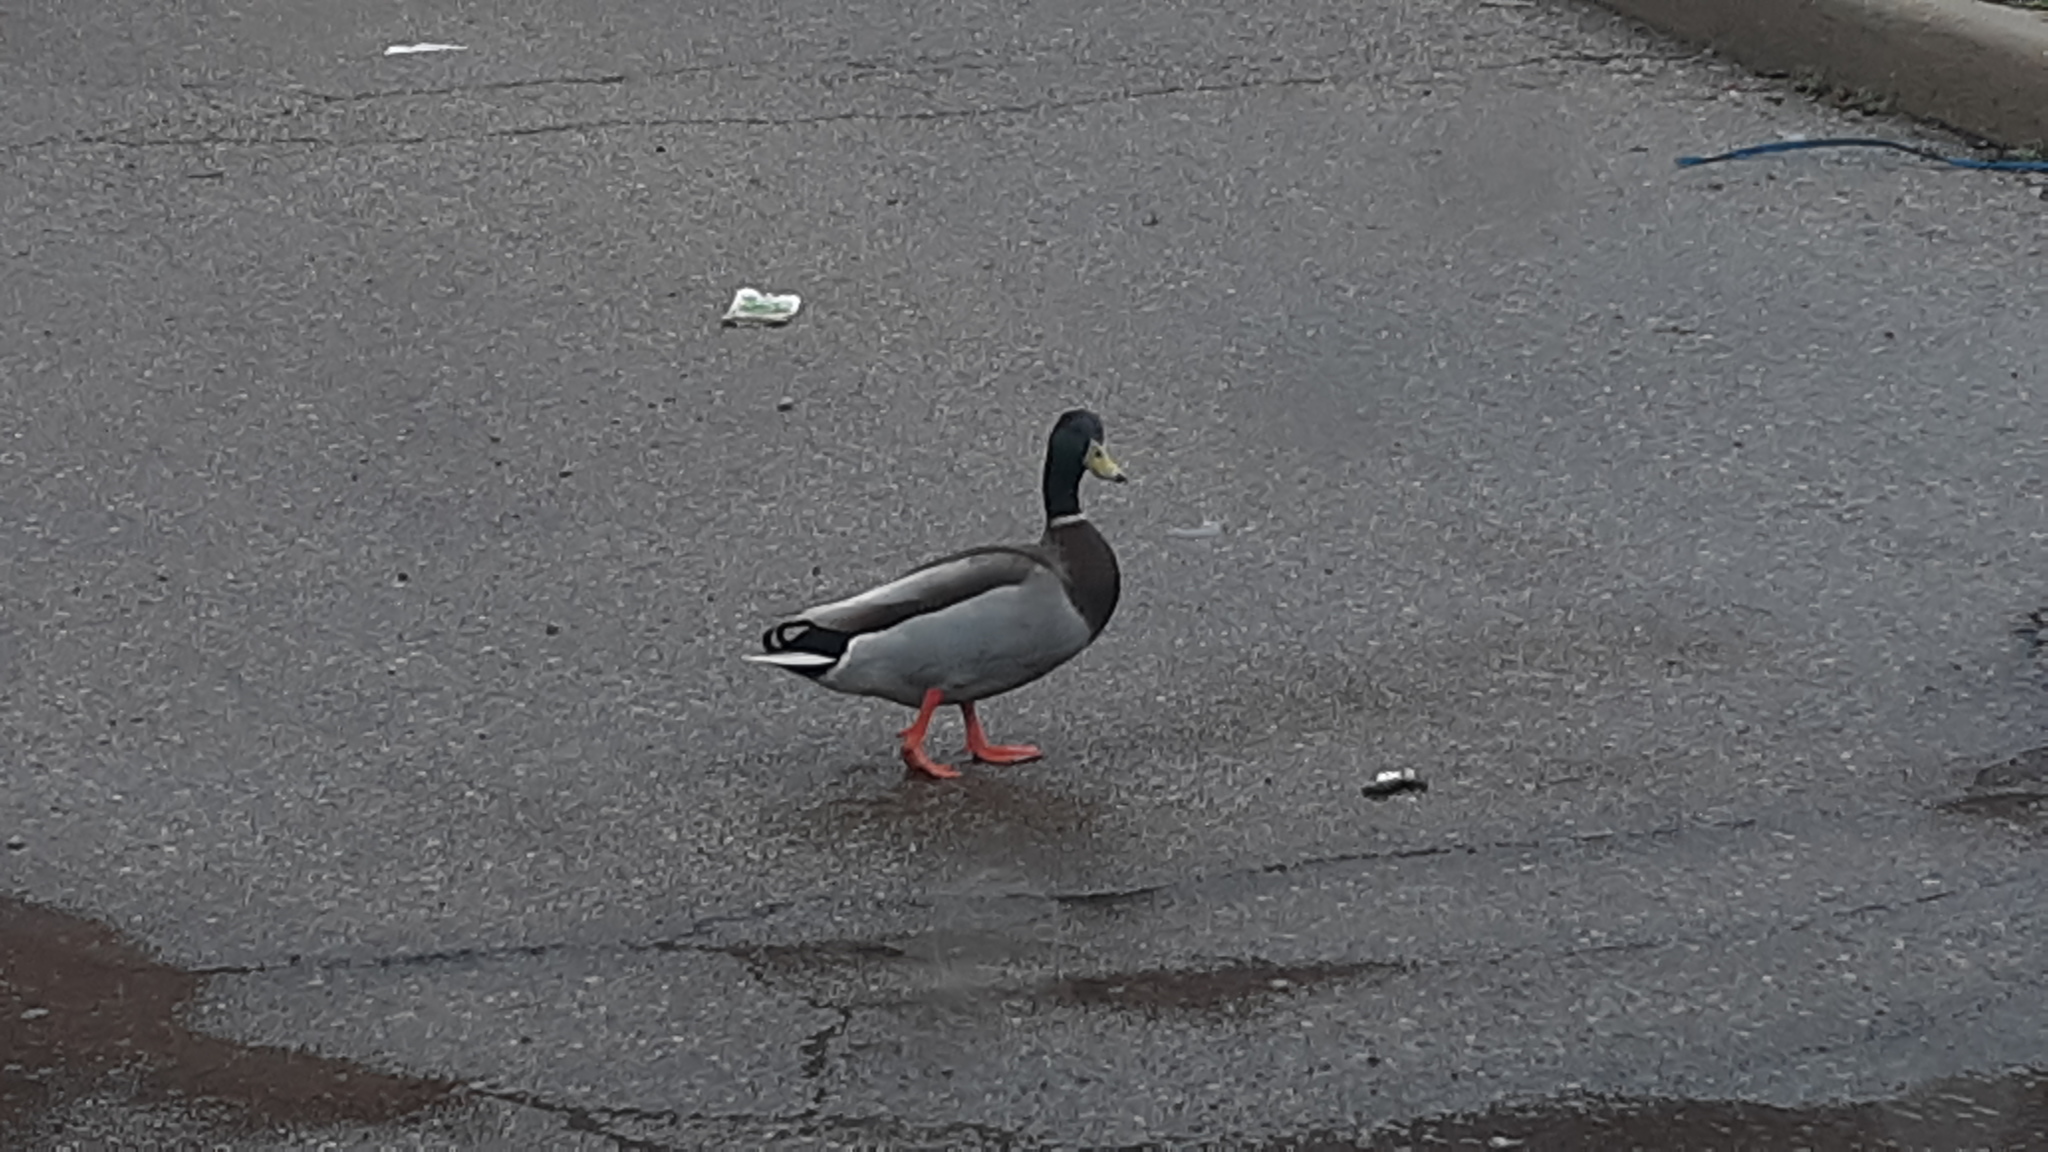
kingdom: Animalia
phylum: Chordata
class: Aves
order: Anseriformes
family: Anatidae
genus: Anas
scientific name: Anas platyrhynchos
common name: Mallard
